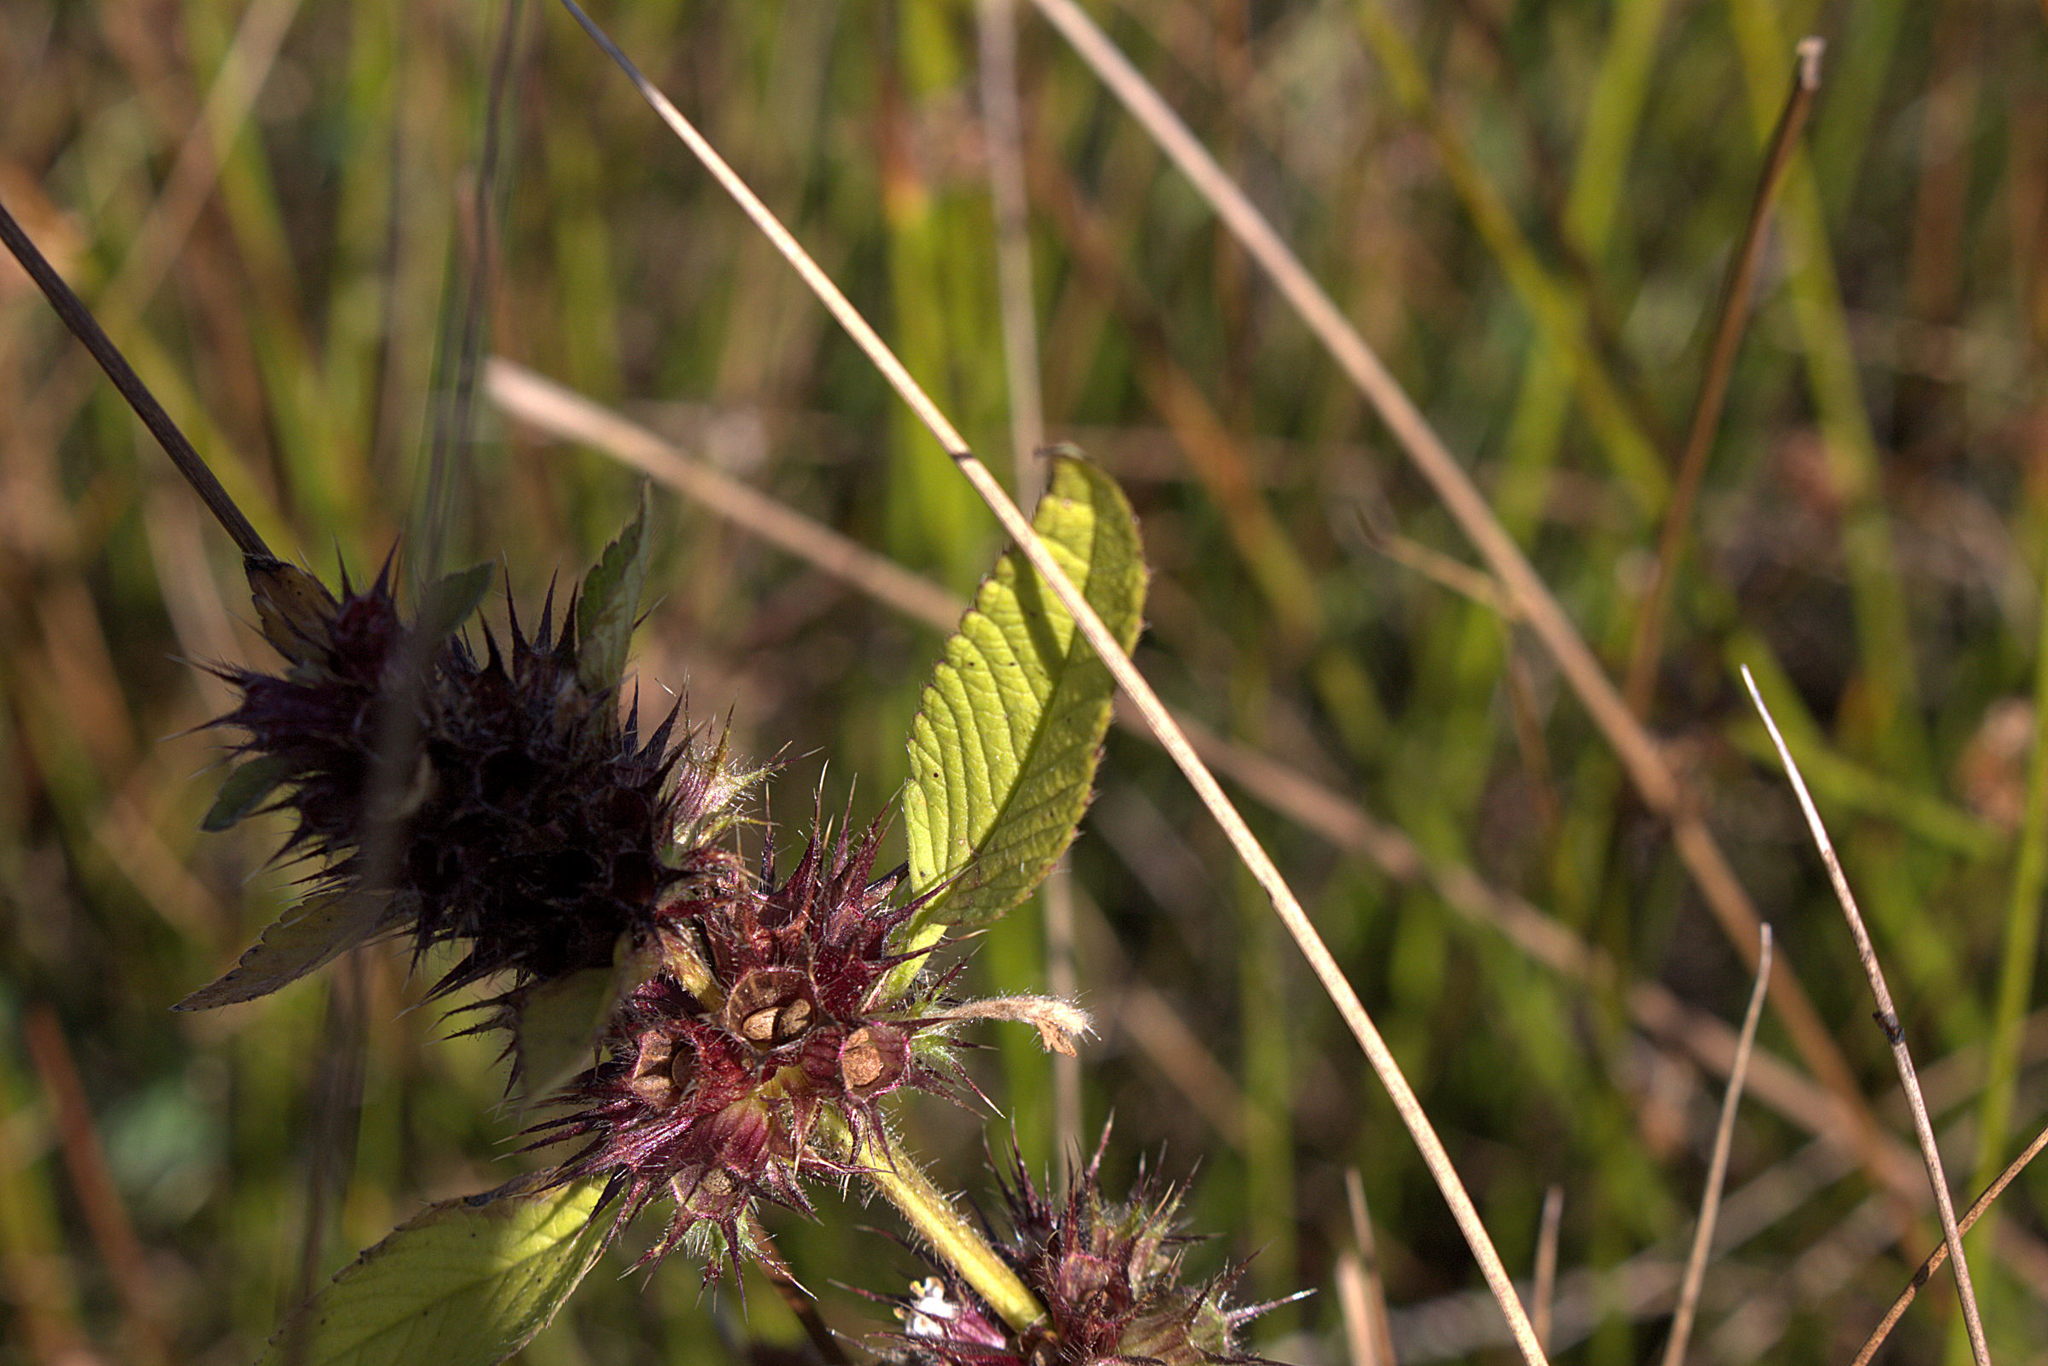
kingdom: Plantae
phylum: Tracheophyta
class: Magnoliopsida
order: Lamiales
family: Lamiaceae
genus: Galeopsis
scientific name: Galeopsis tetrahit
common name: Common hemp-nettle
